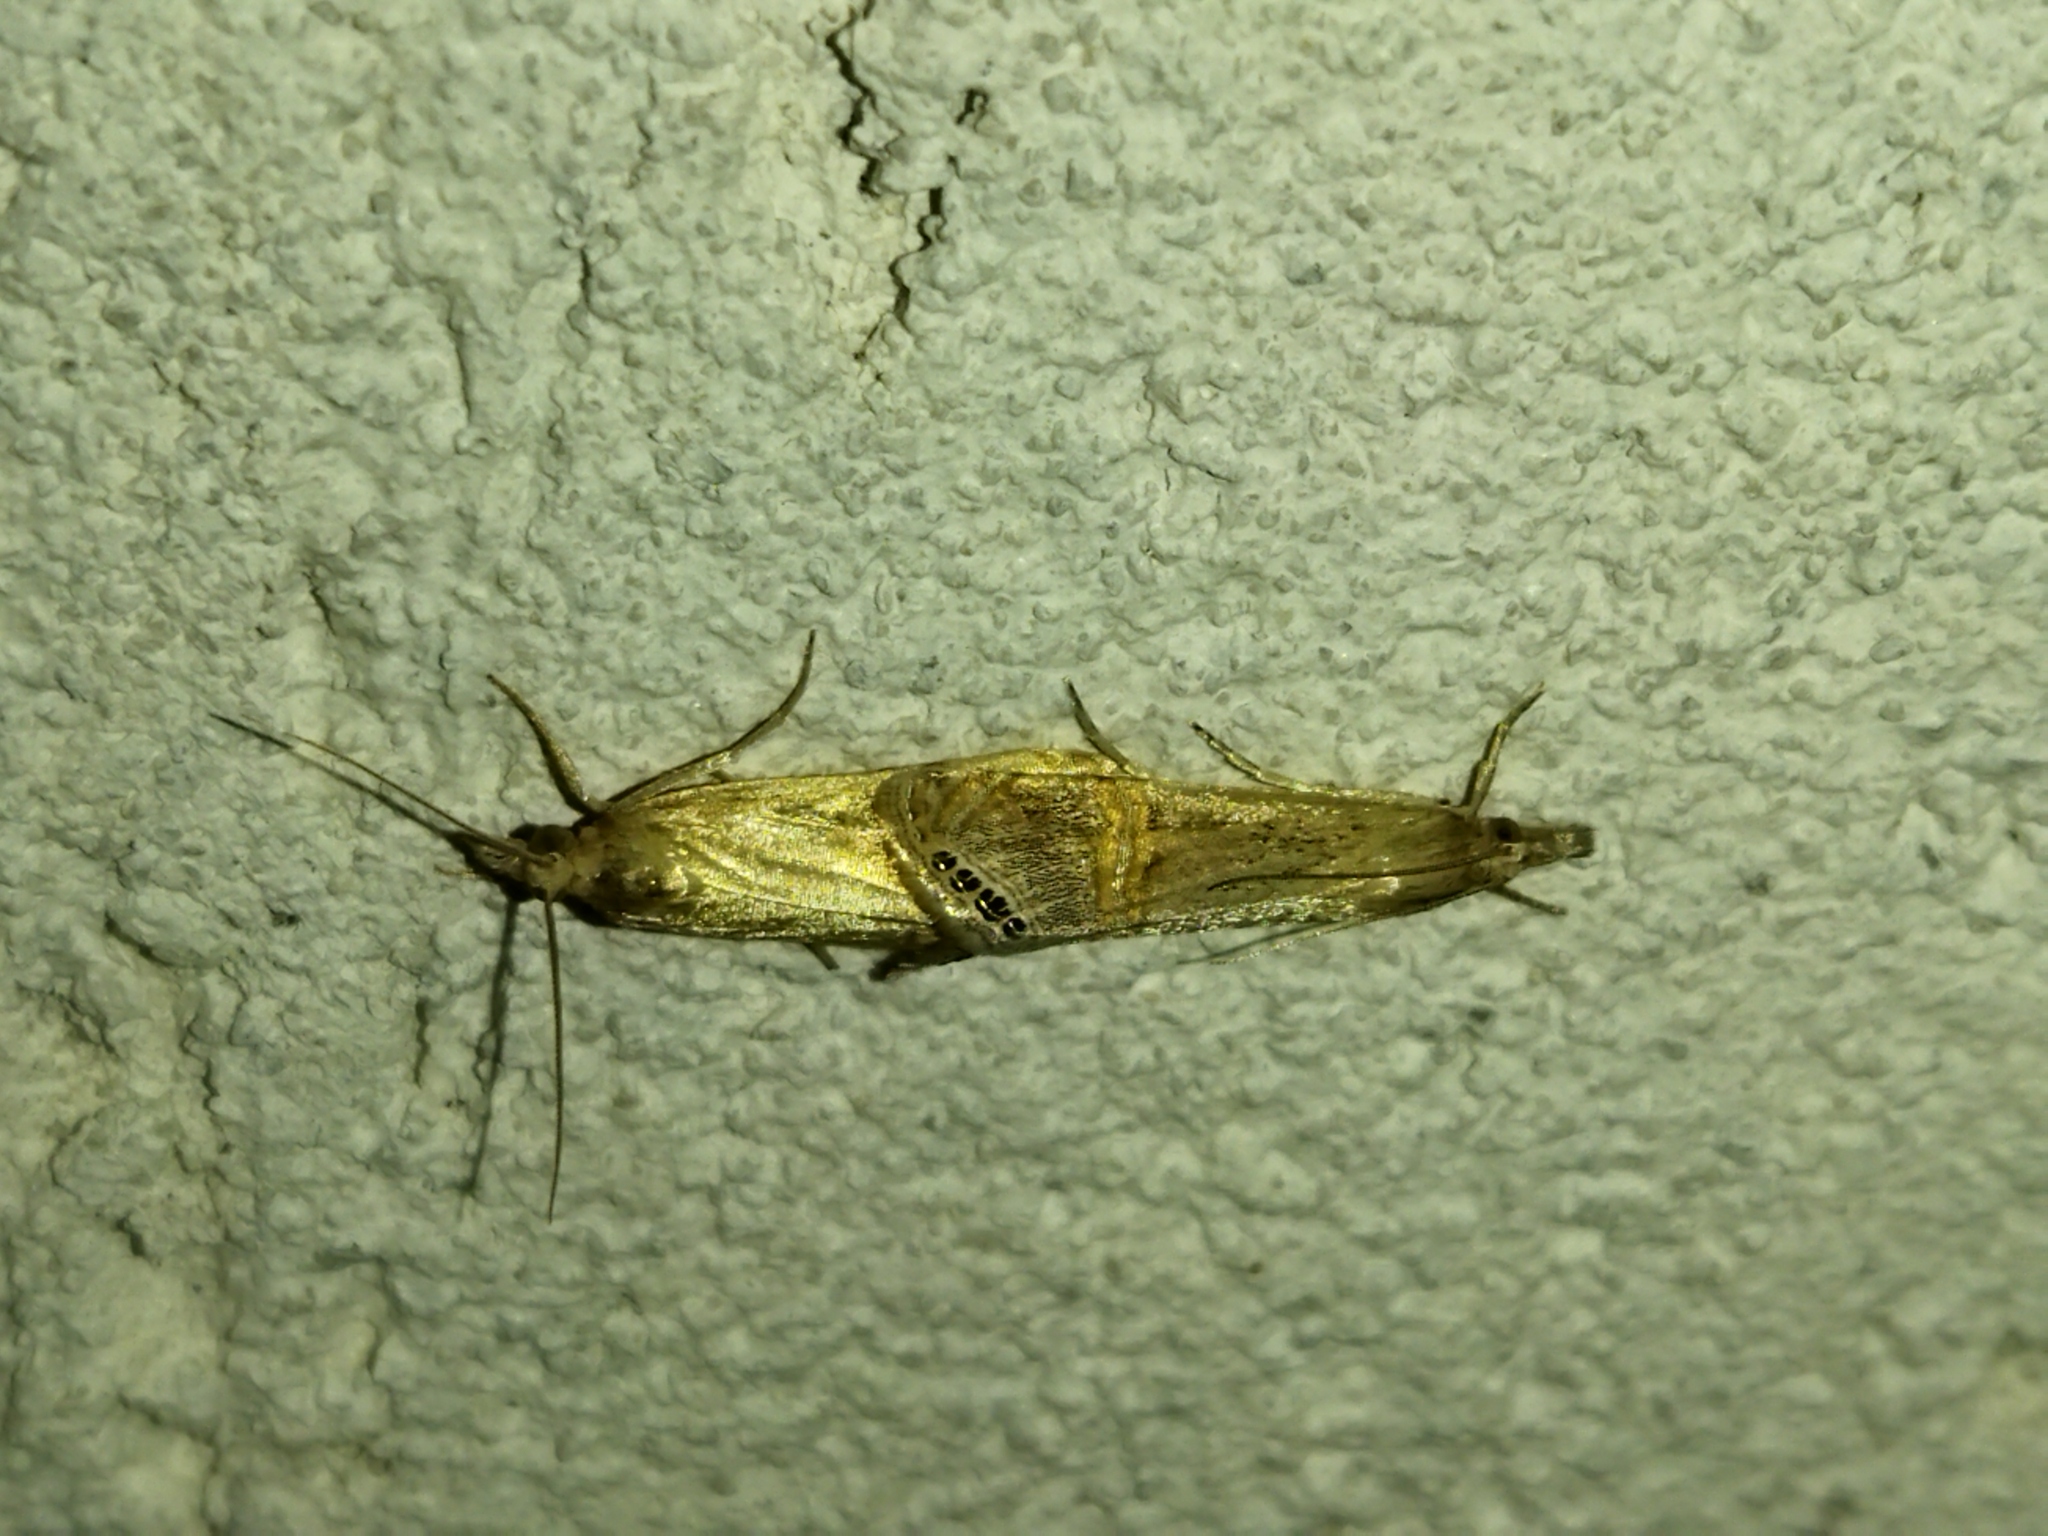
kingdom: Animalia
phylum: Arthropoda
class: Insecta
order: Lepidoptera
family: Crambidae
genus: Euchromius
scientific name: Euchromius ocellea
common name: Necklace veneer moth
